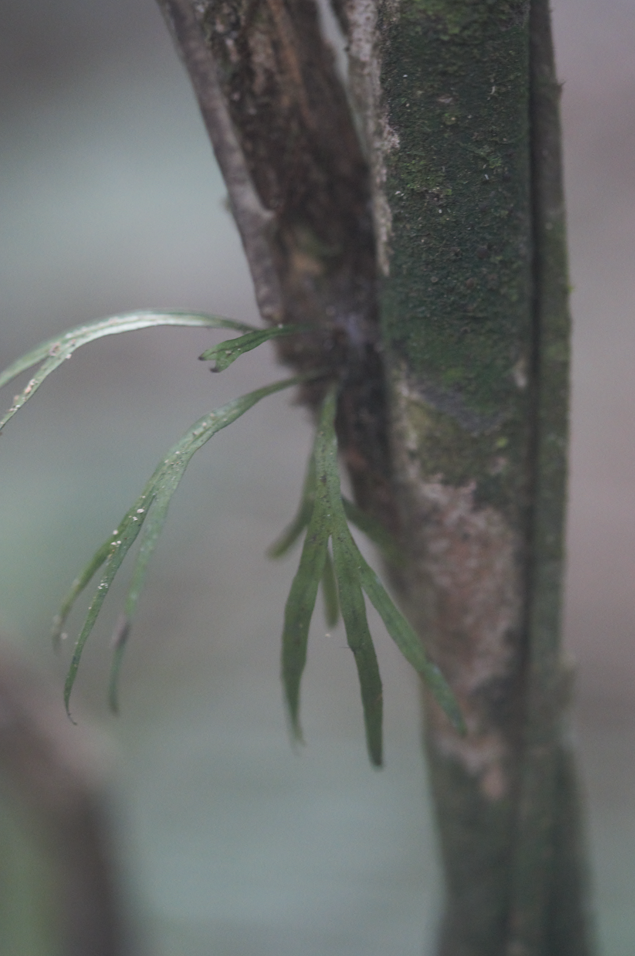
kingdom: Plantae
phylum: Tracheophyta
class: Polypodiopsida
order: Polypodiales
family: Polypodiaceae
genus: Pleopeltis
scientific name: Pleopeltis desvauxii
